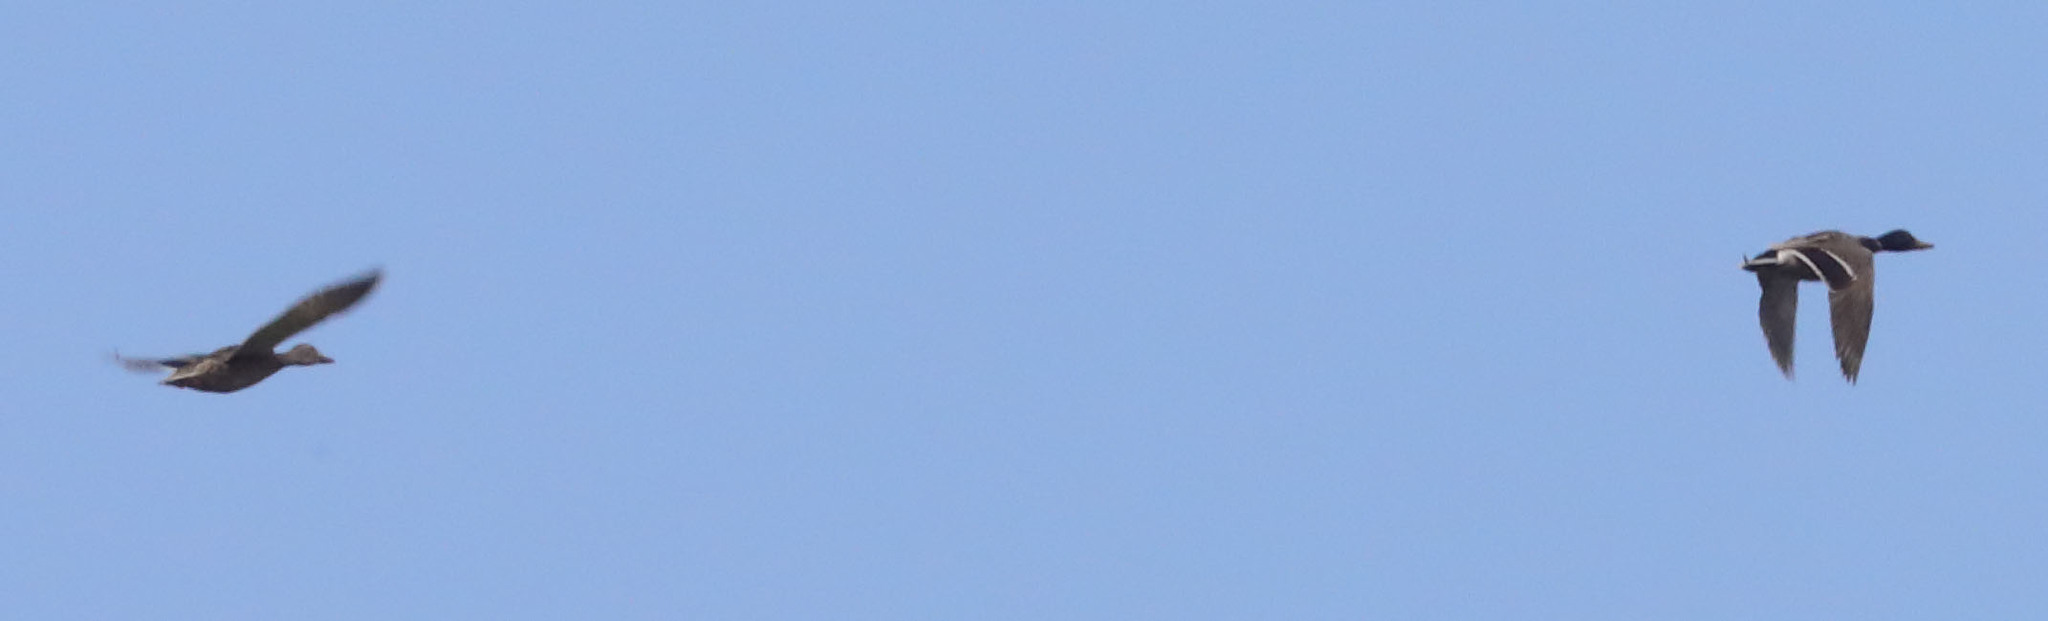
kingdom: Animalia
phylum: Chordata
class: Aves
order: Anseriformes
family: Anatidae
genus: Anas
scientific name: Anas platyrhynchos
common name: Mallard
